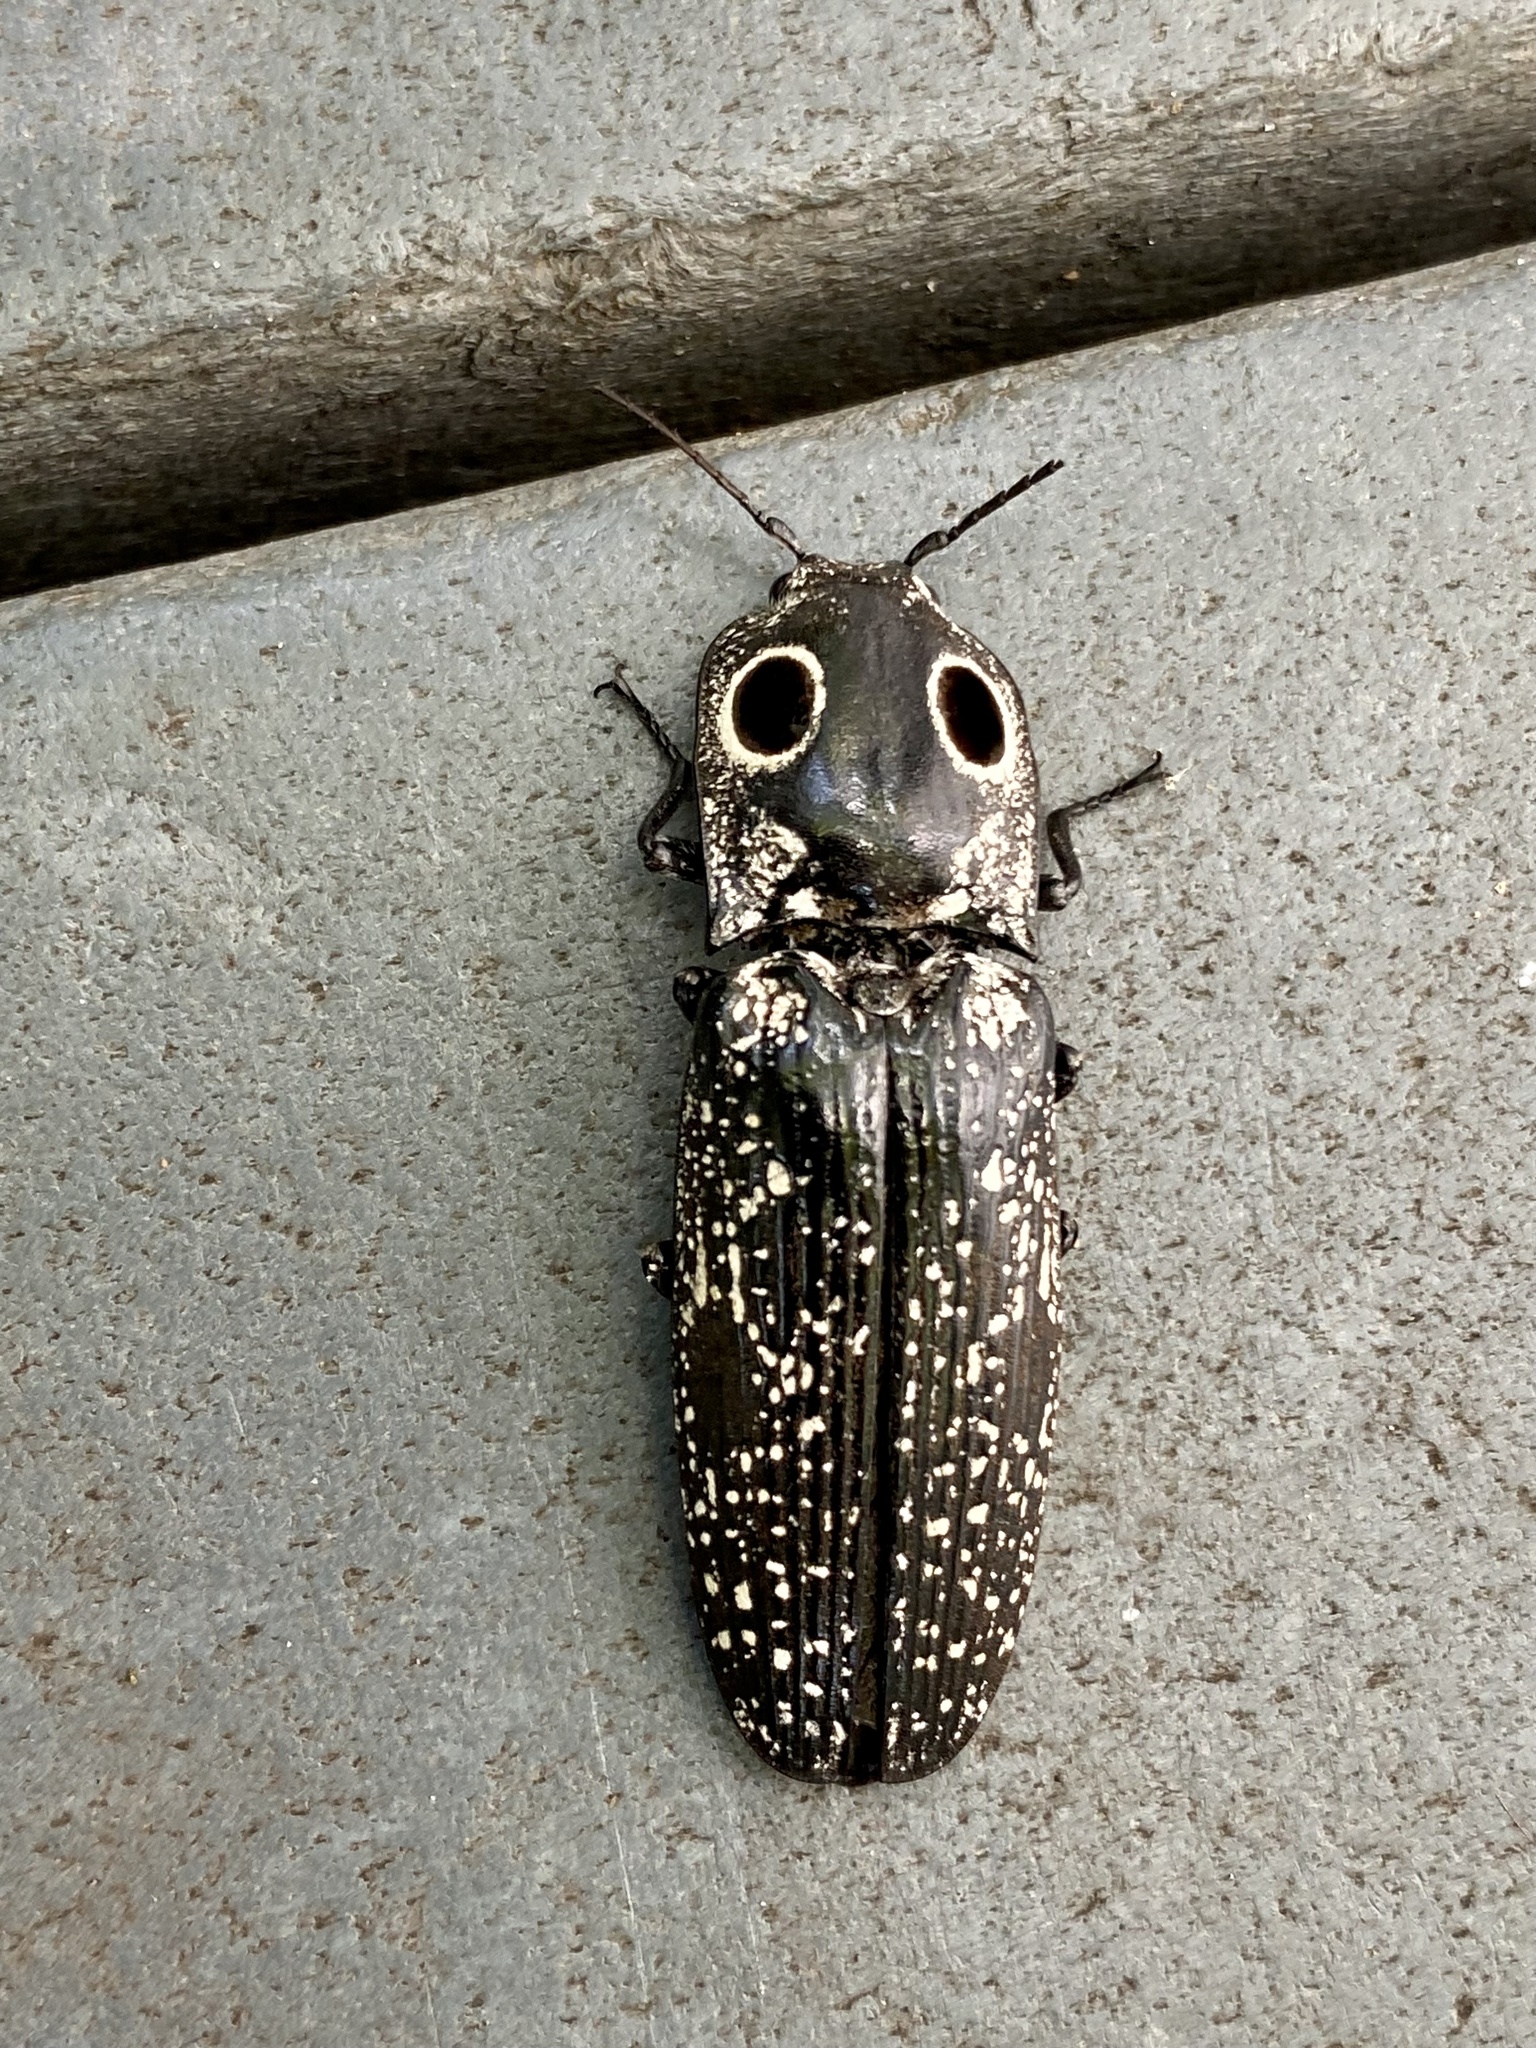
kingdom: Animalia
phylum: Arthropoda
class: Insecta
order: Coleoptera
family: Elateridae
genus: Alaus
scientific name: Alaus oculatus
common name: Eastern eyed click beetle
